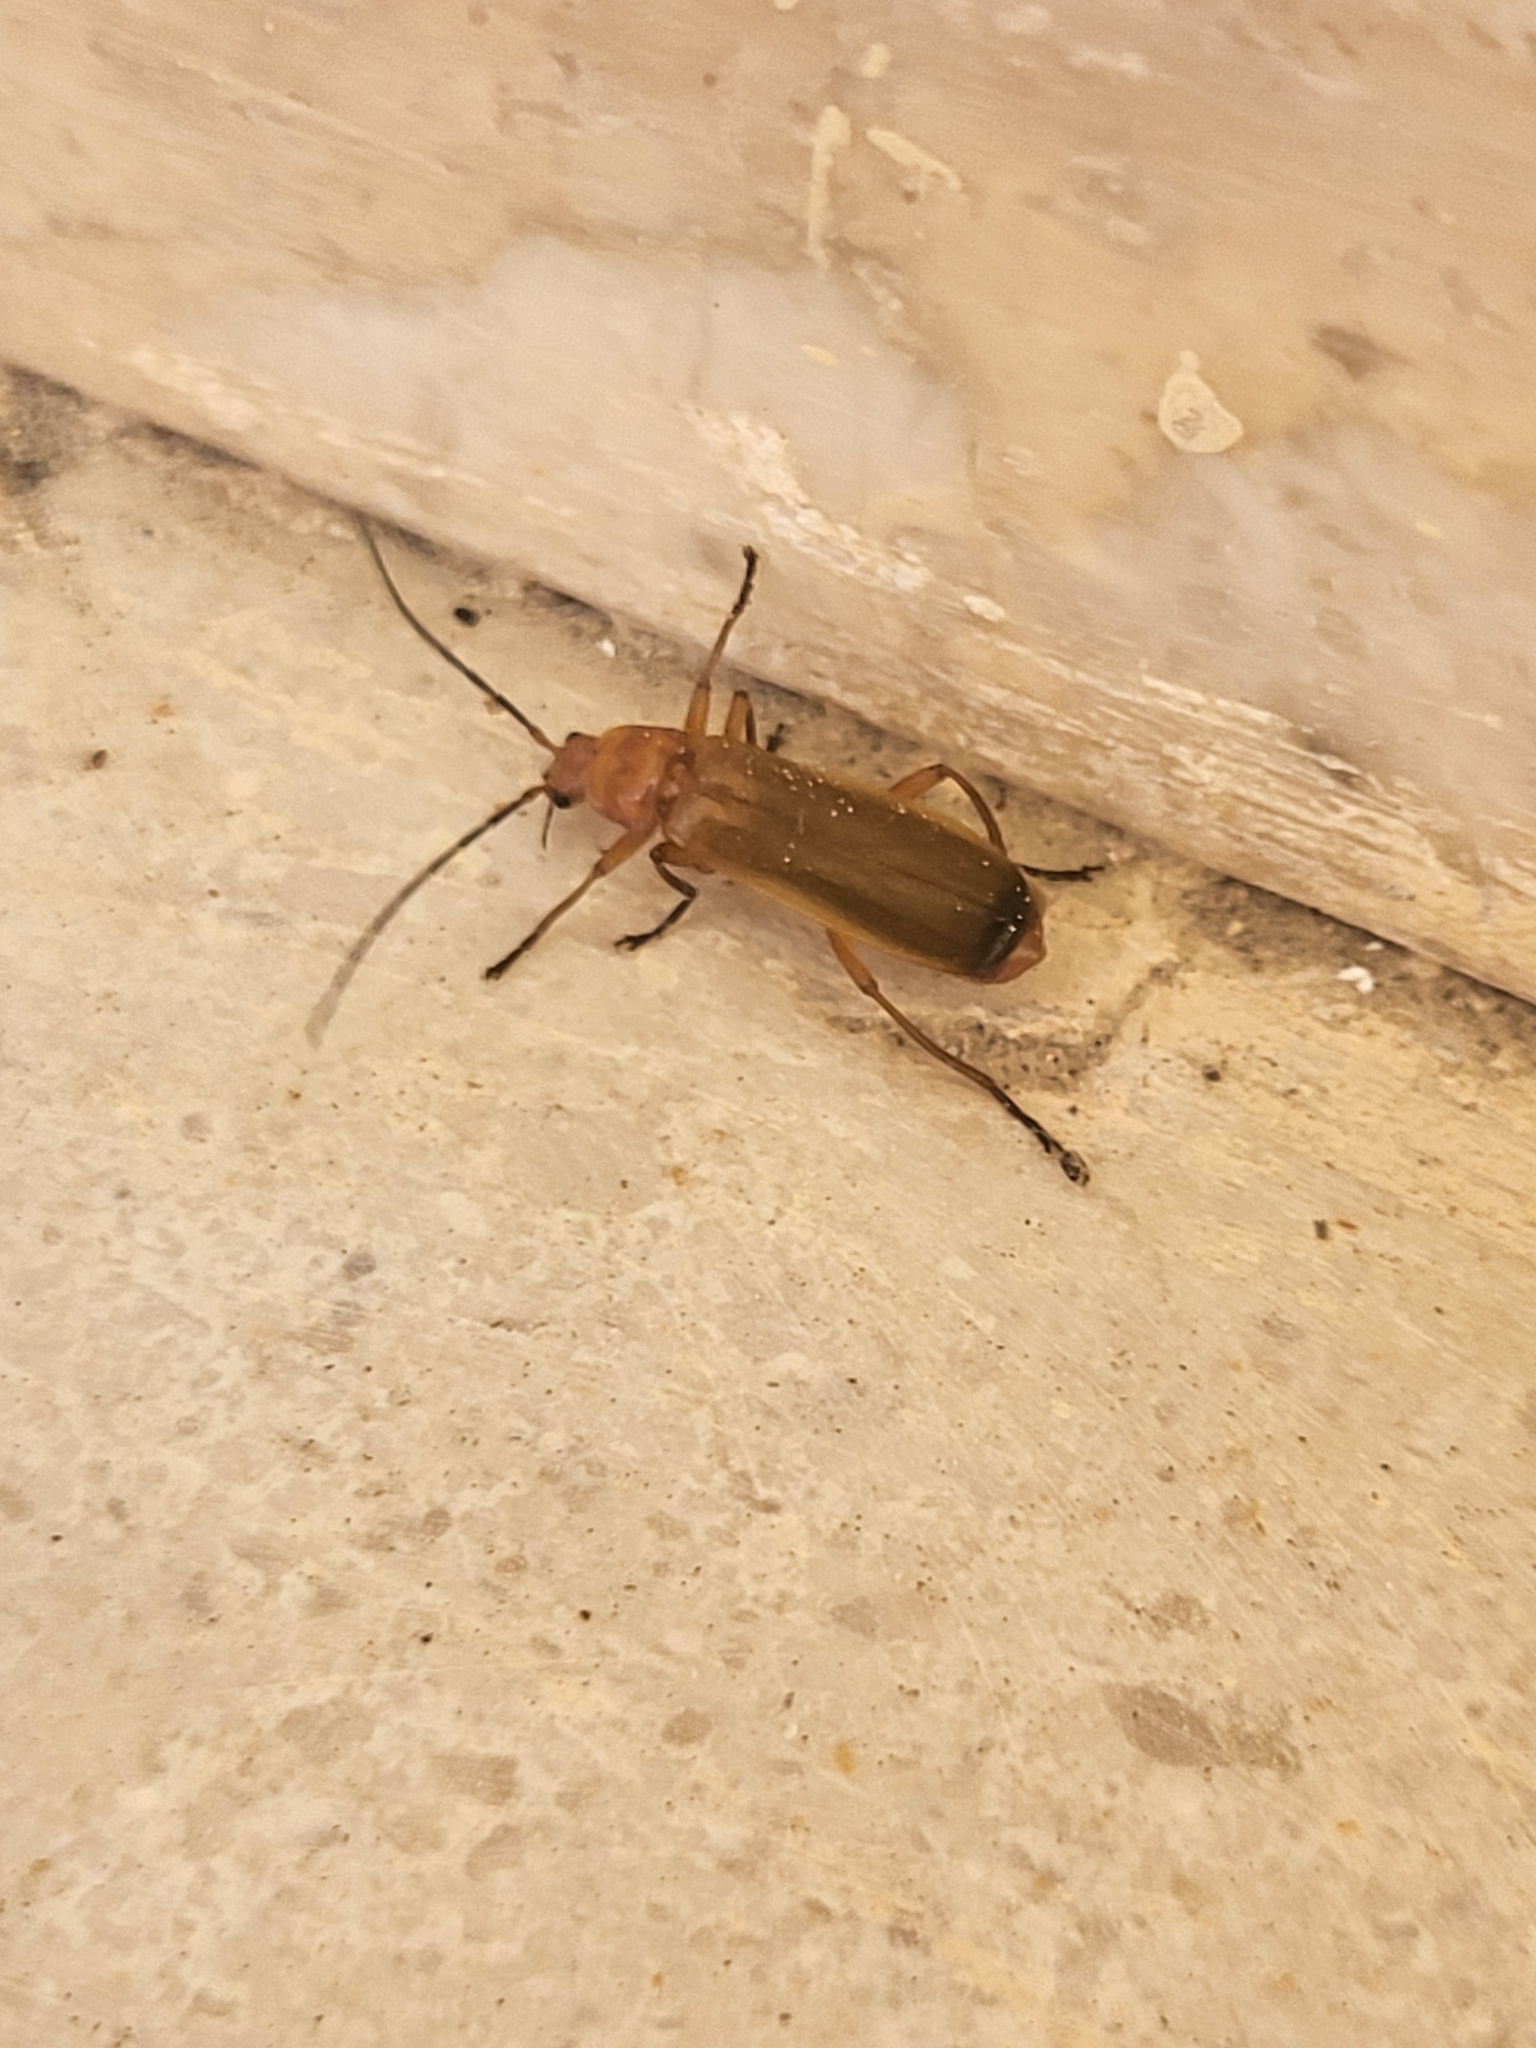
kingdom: Animalia
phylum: Arthropoda
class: Insecta
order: Coleoptera
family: Cantharidae
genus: Rhagonycha
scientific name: Rhagonycha fulva
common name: Common red soldier beetle
